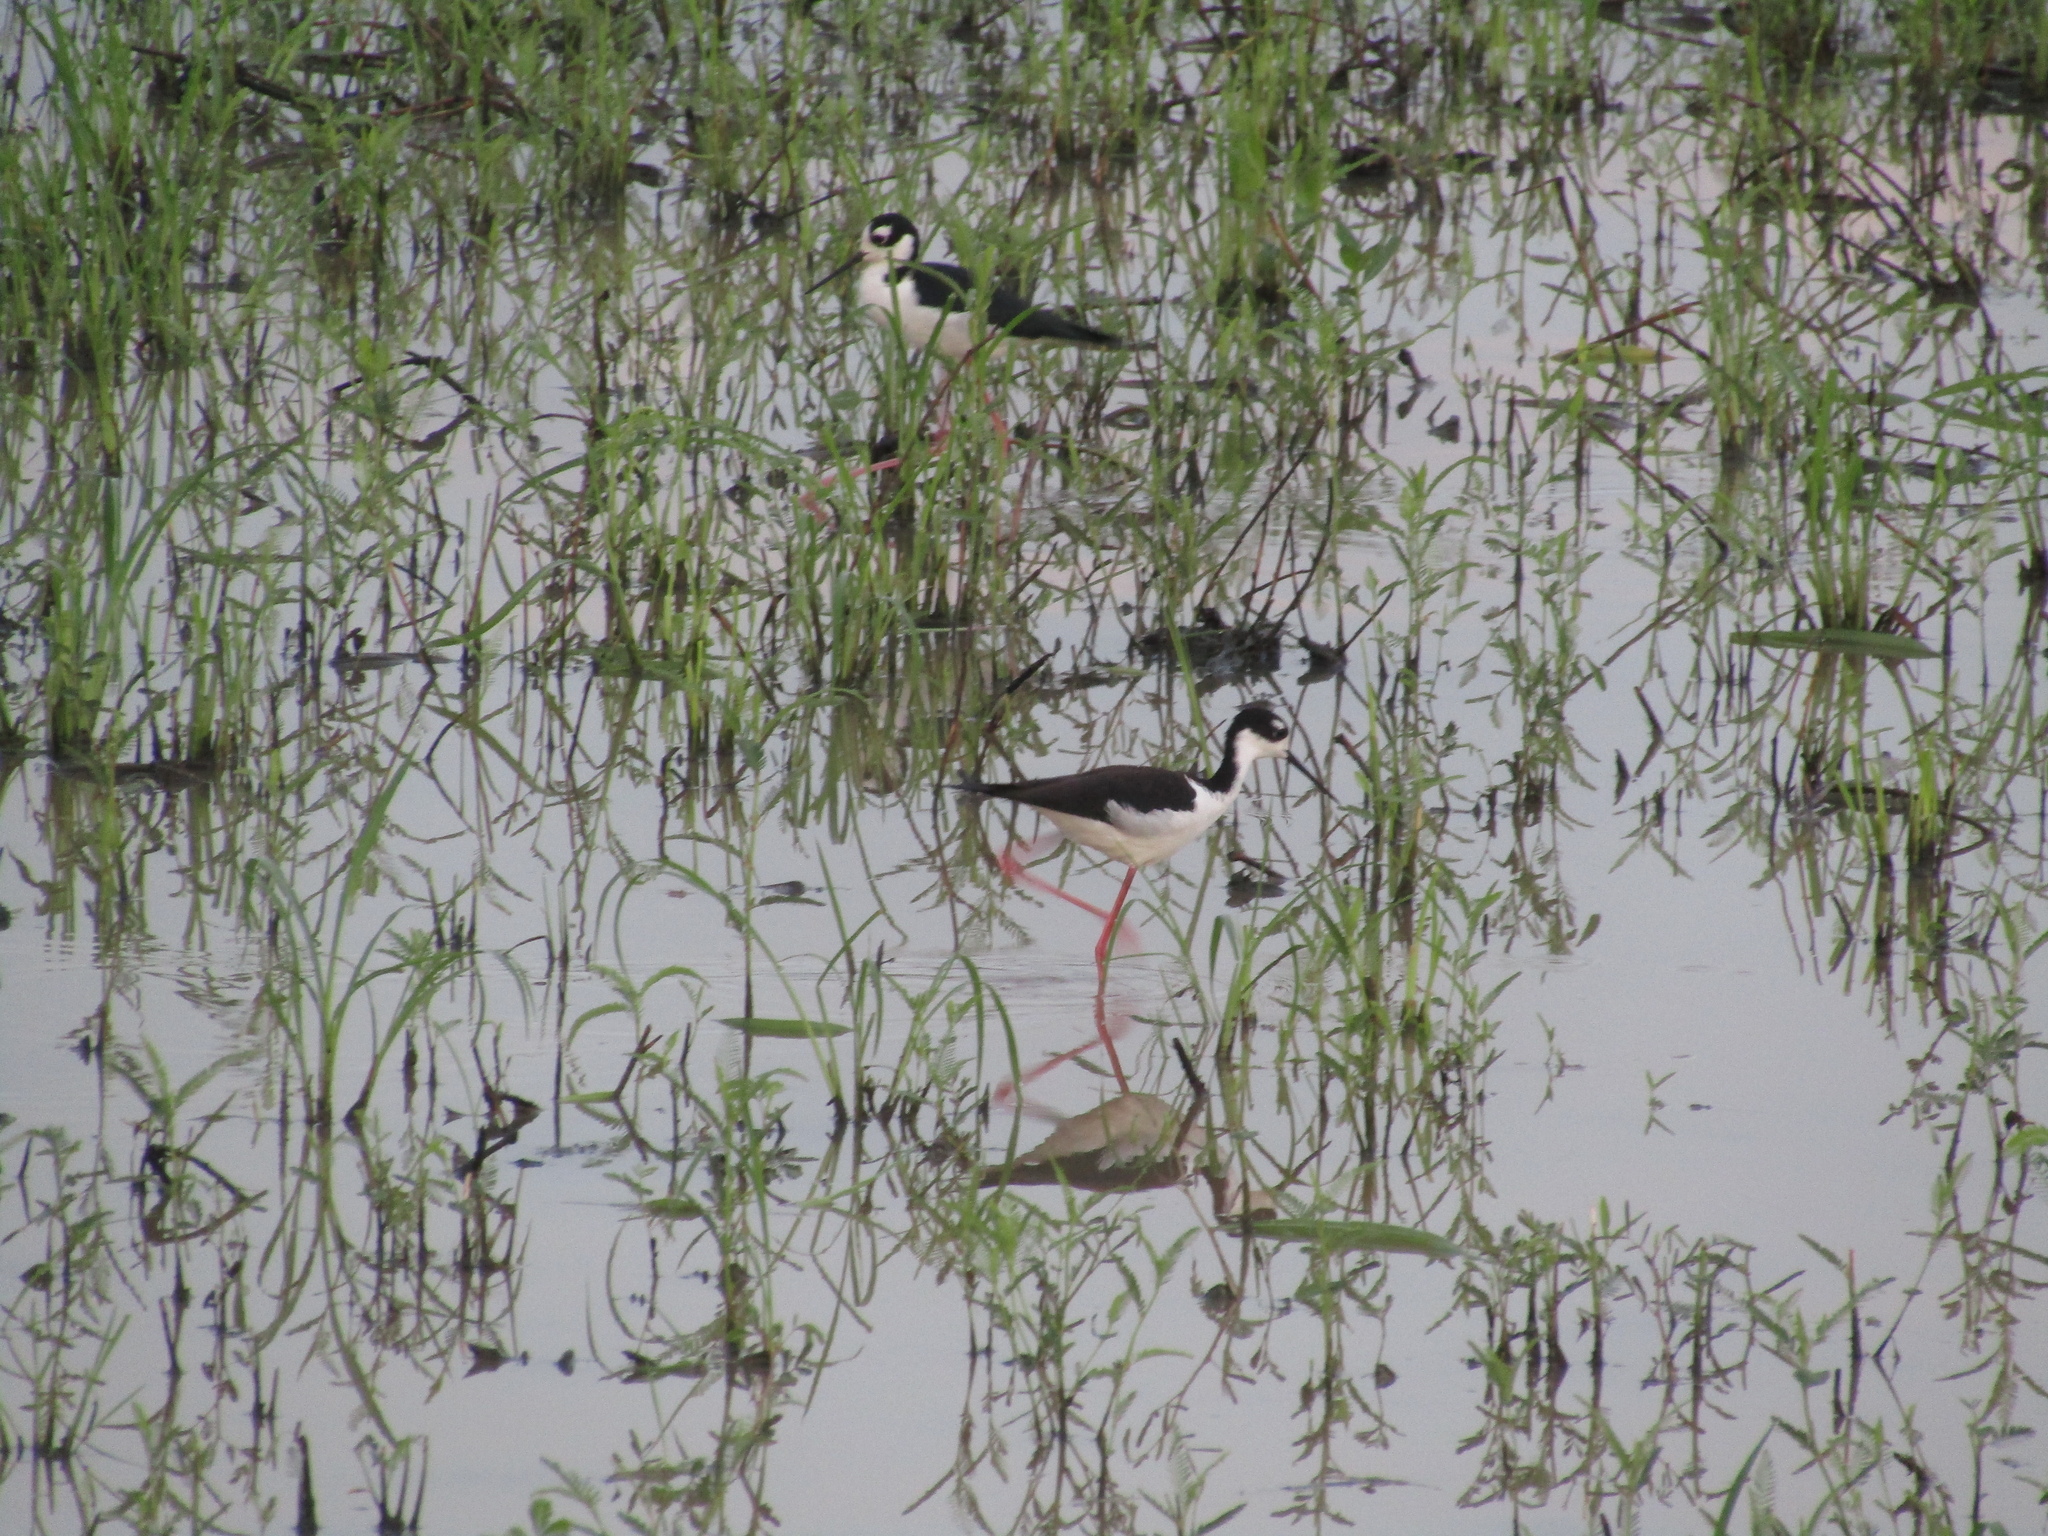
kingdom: Animalia
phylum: Chordata
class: Aves
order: Charadriiformes
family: Recurvirostridae
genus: Himantopus
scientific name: Himantopus mexicanus
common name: Black-necked stilt
